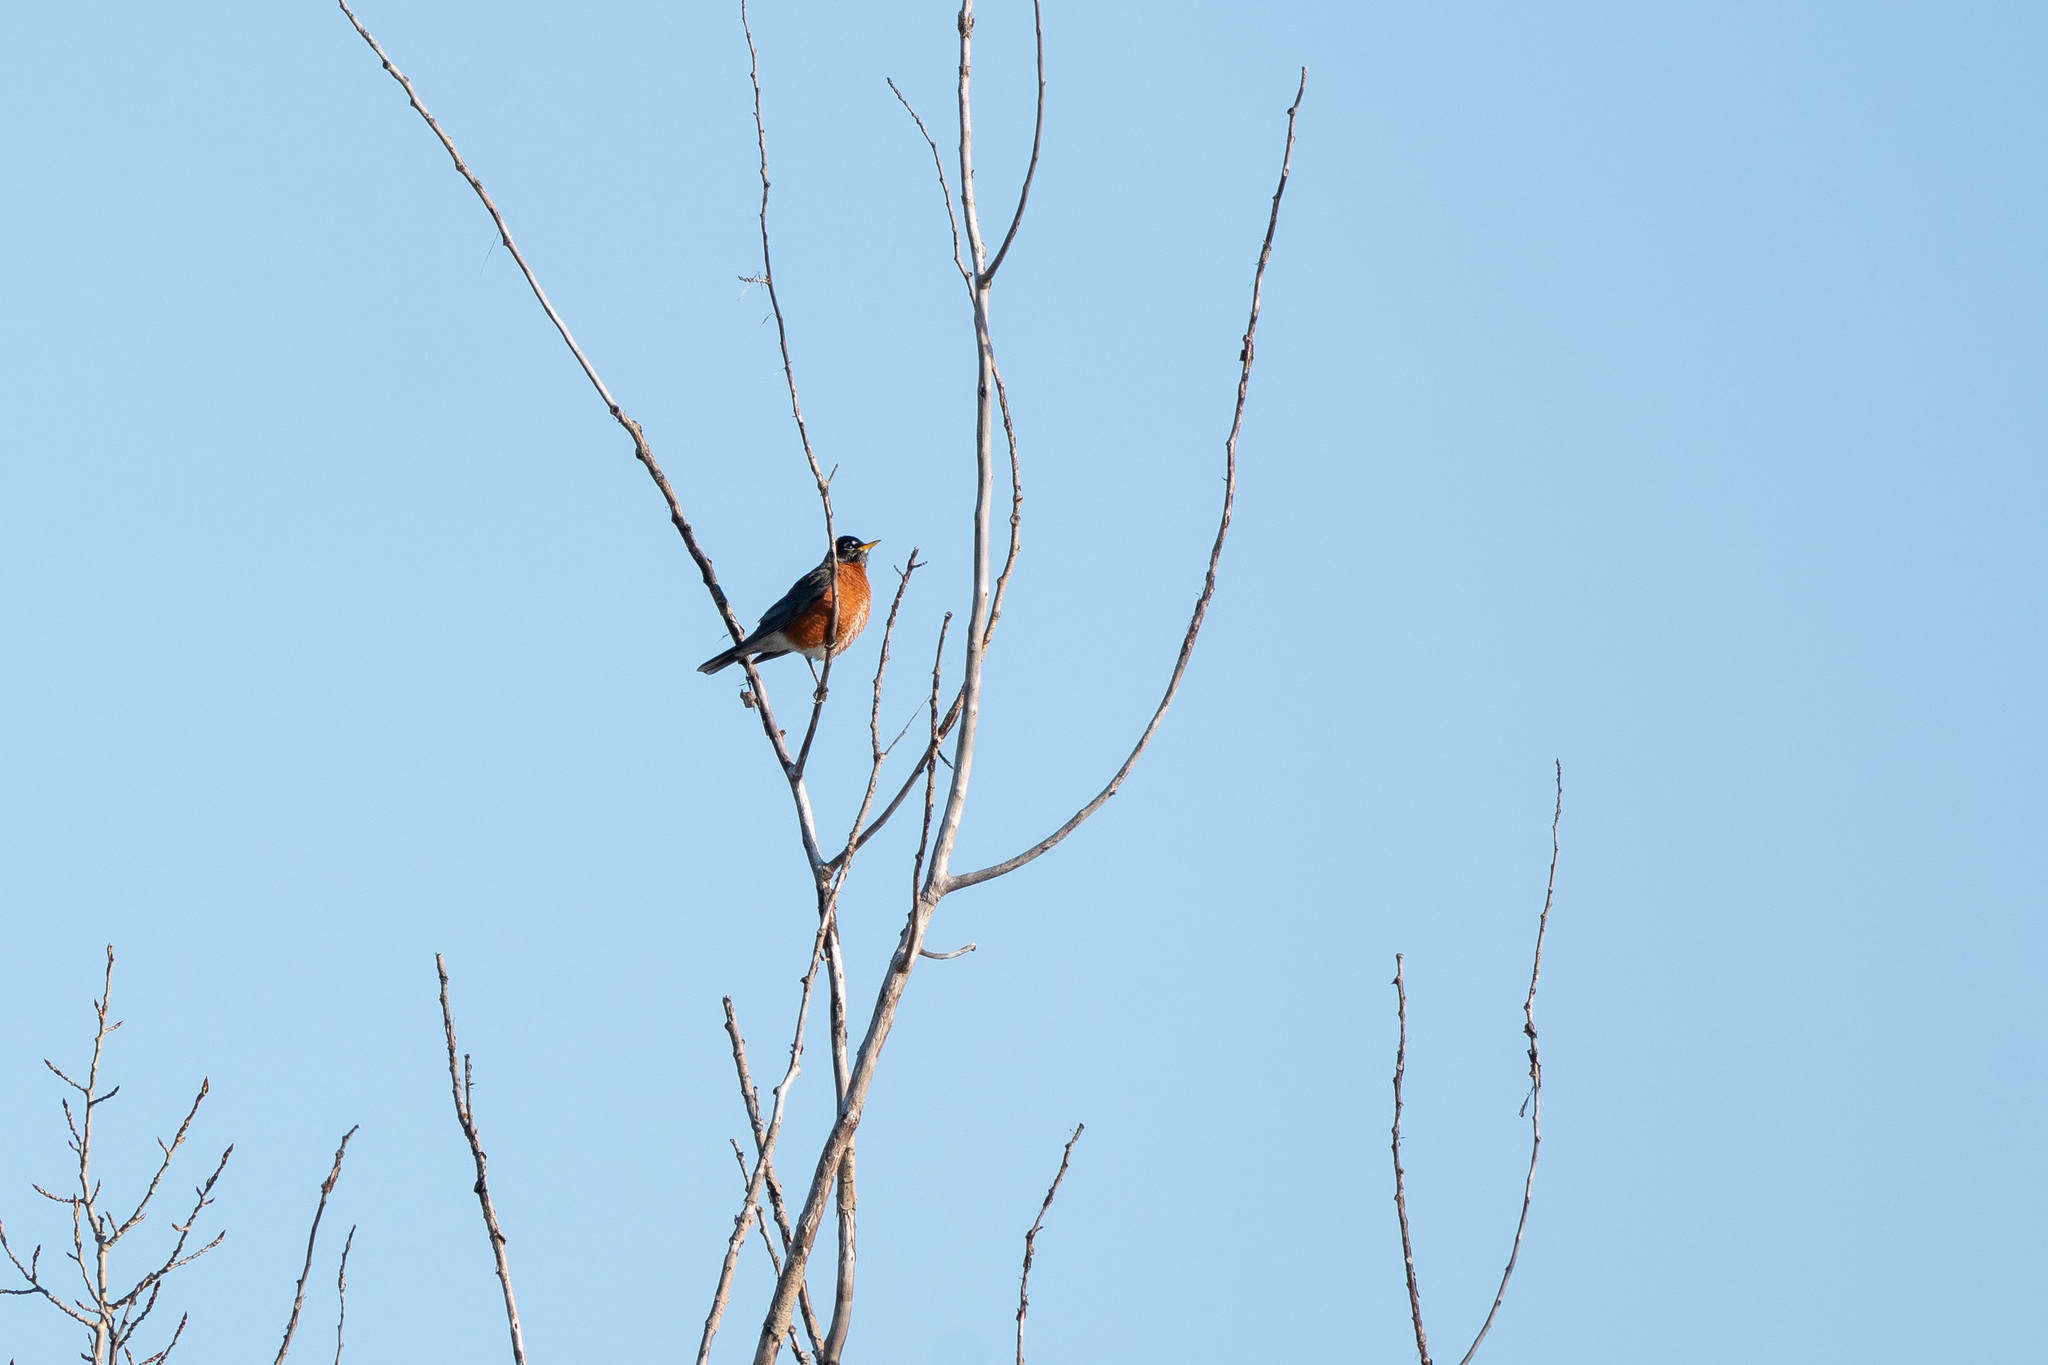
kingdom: Animalia
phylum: Chordata
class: Aves
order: Passeriformes
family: Turdidae
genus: Turdus
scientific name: Turdus migratorius
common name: American robin
